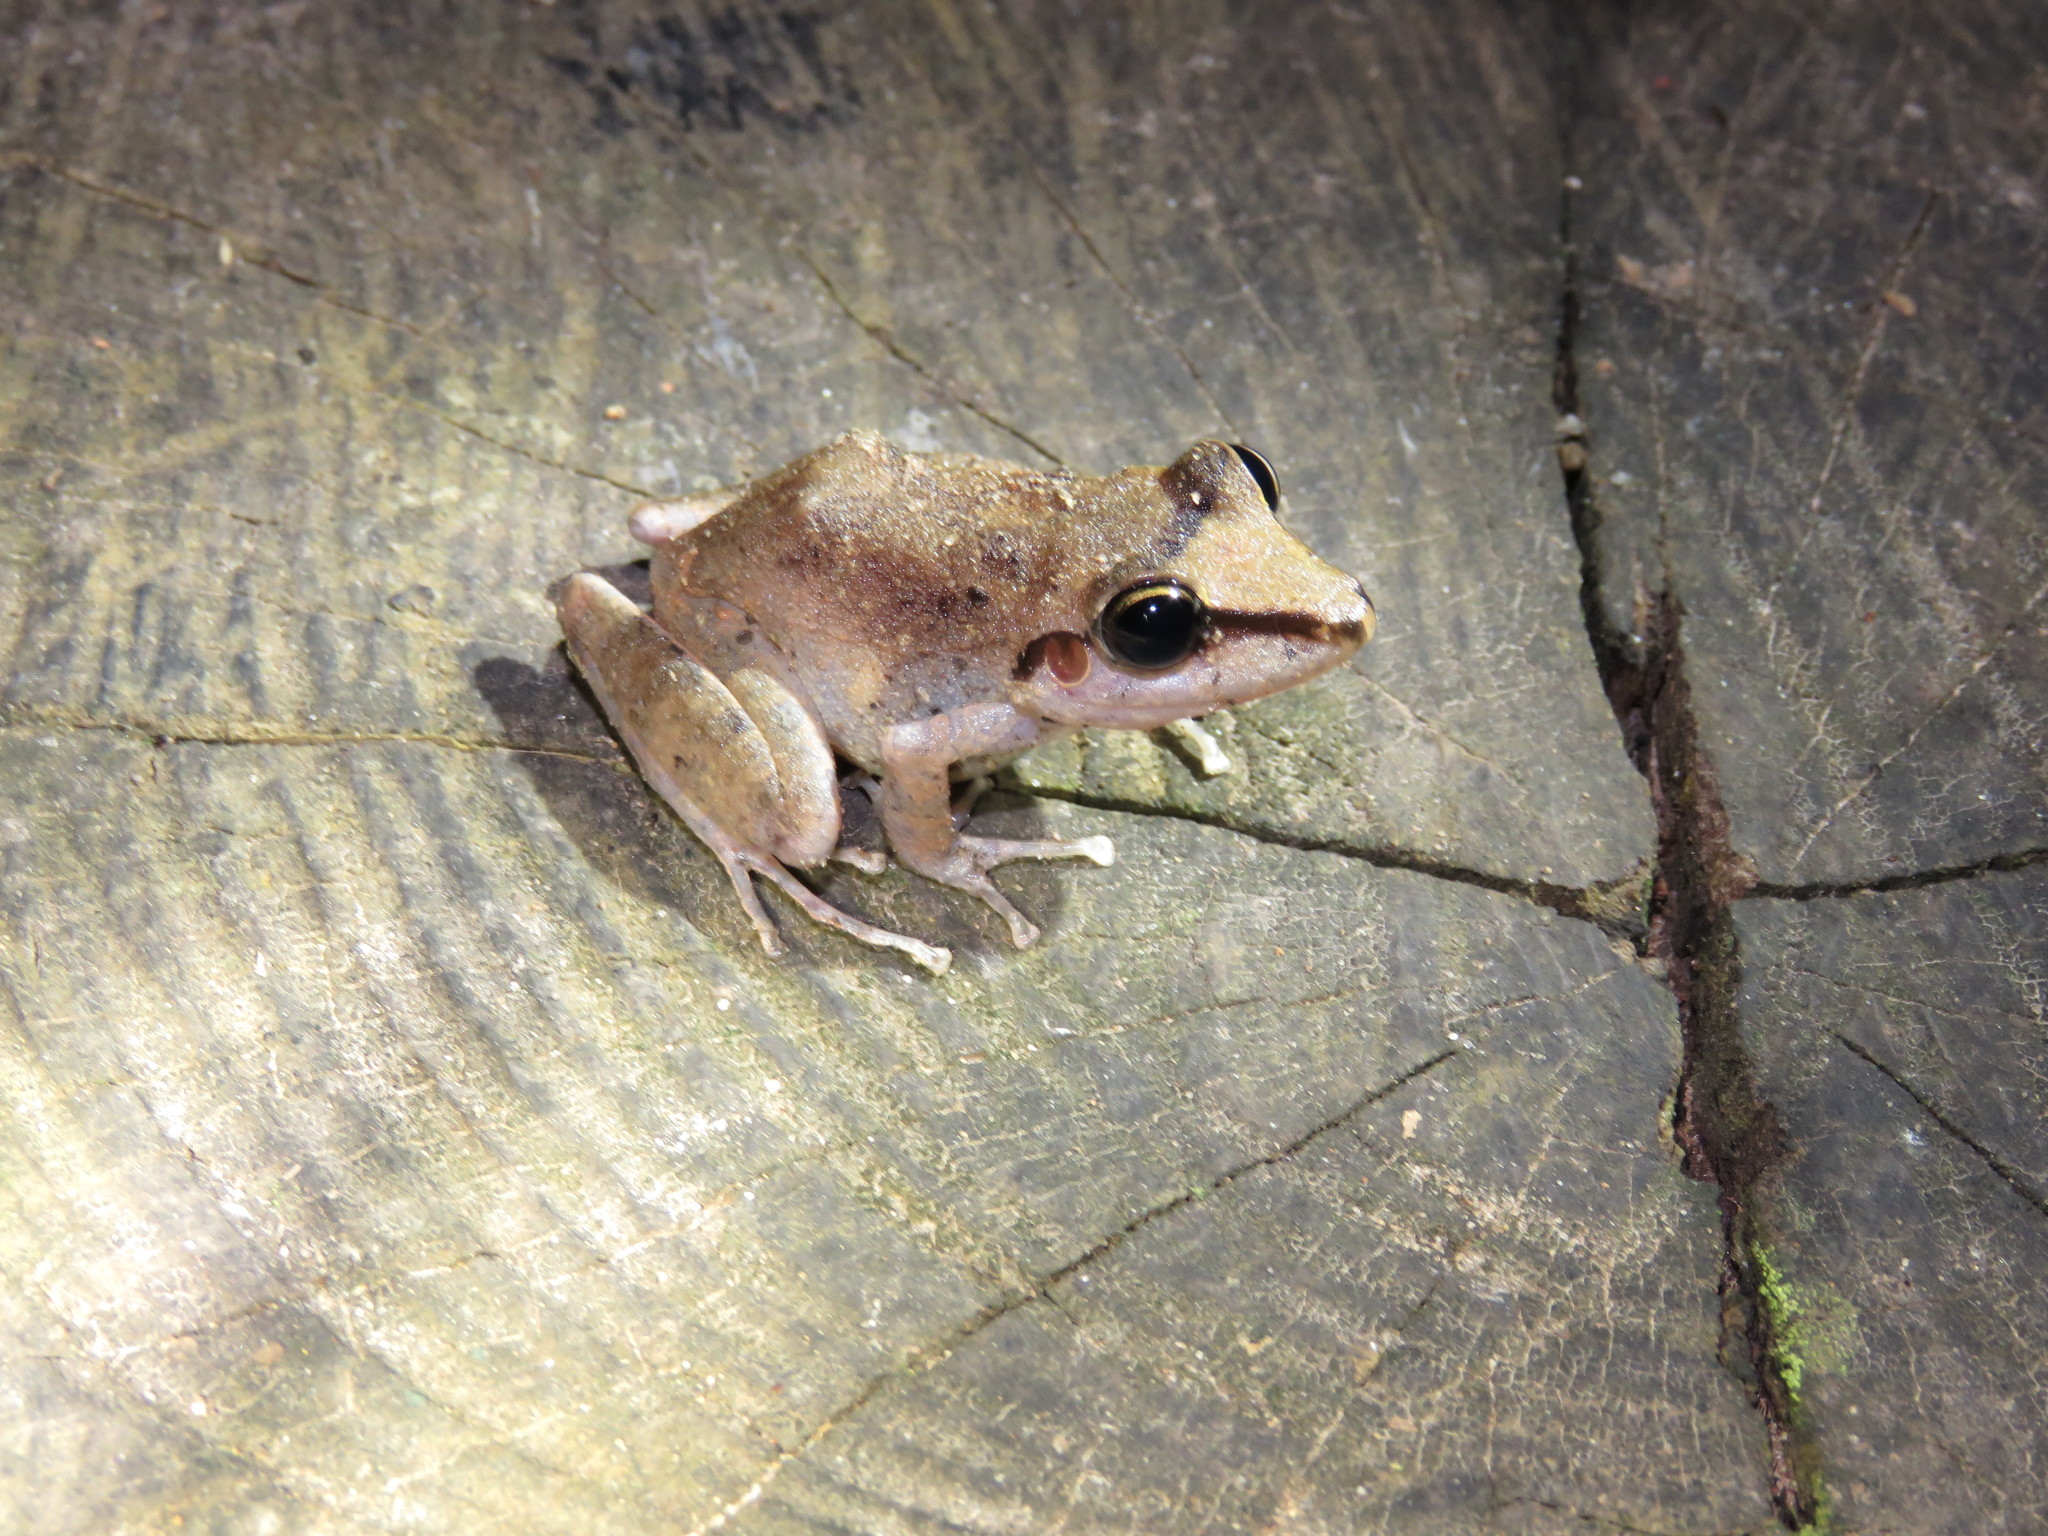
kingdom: Animalia
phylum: Chordata
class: Amphibia
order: Anura
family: Craugastoridae
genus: Pristimantis
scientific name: Pristimantis fenestratus
